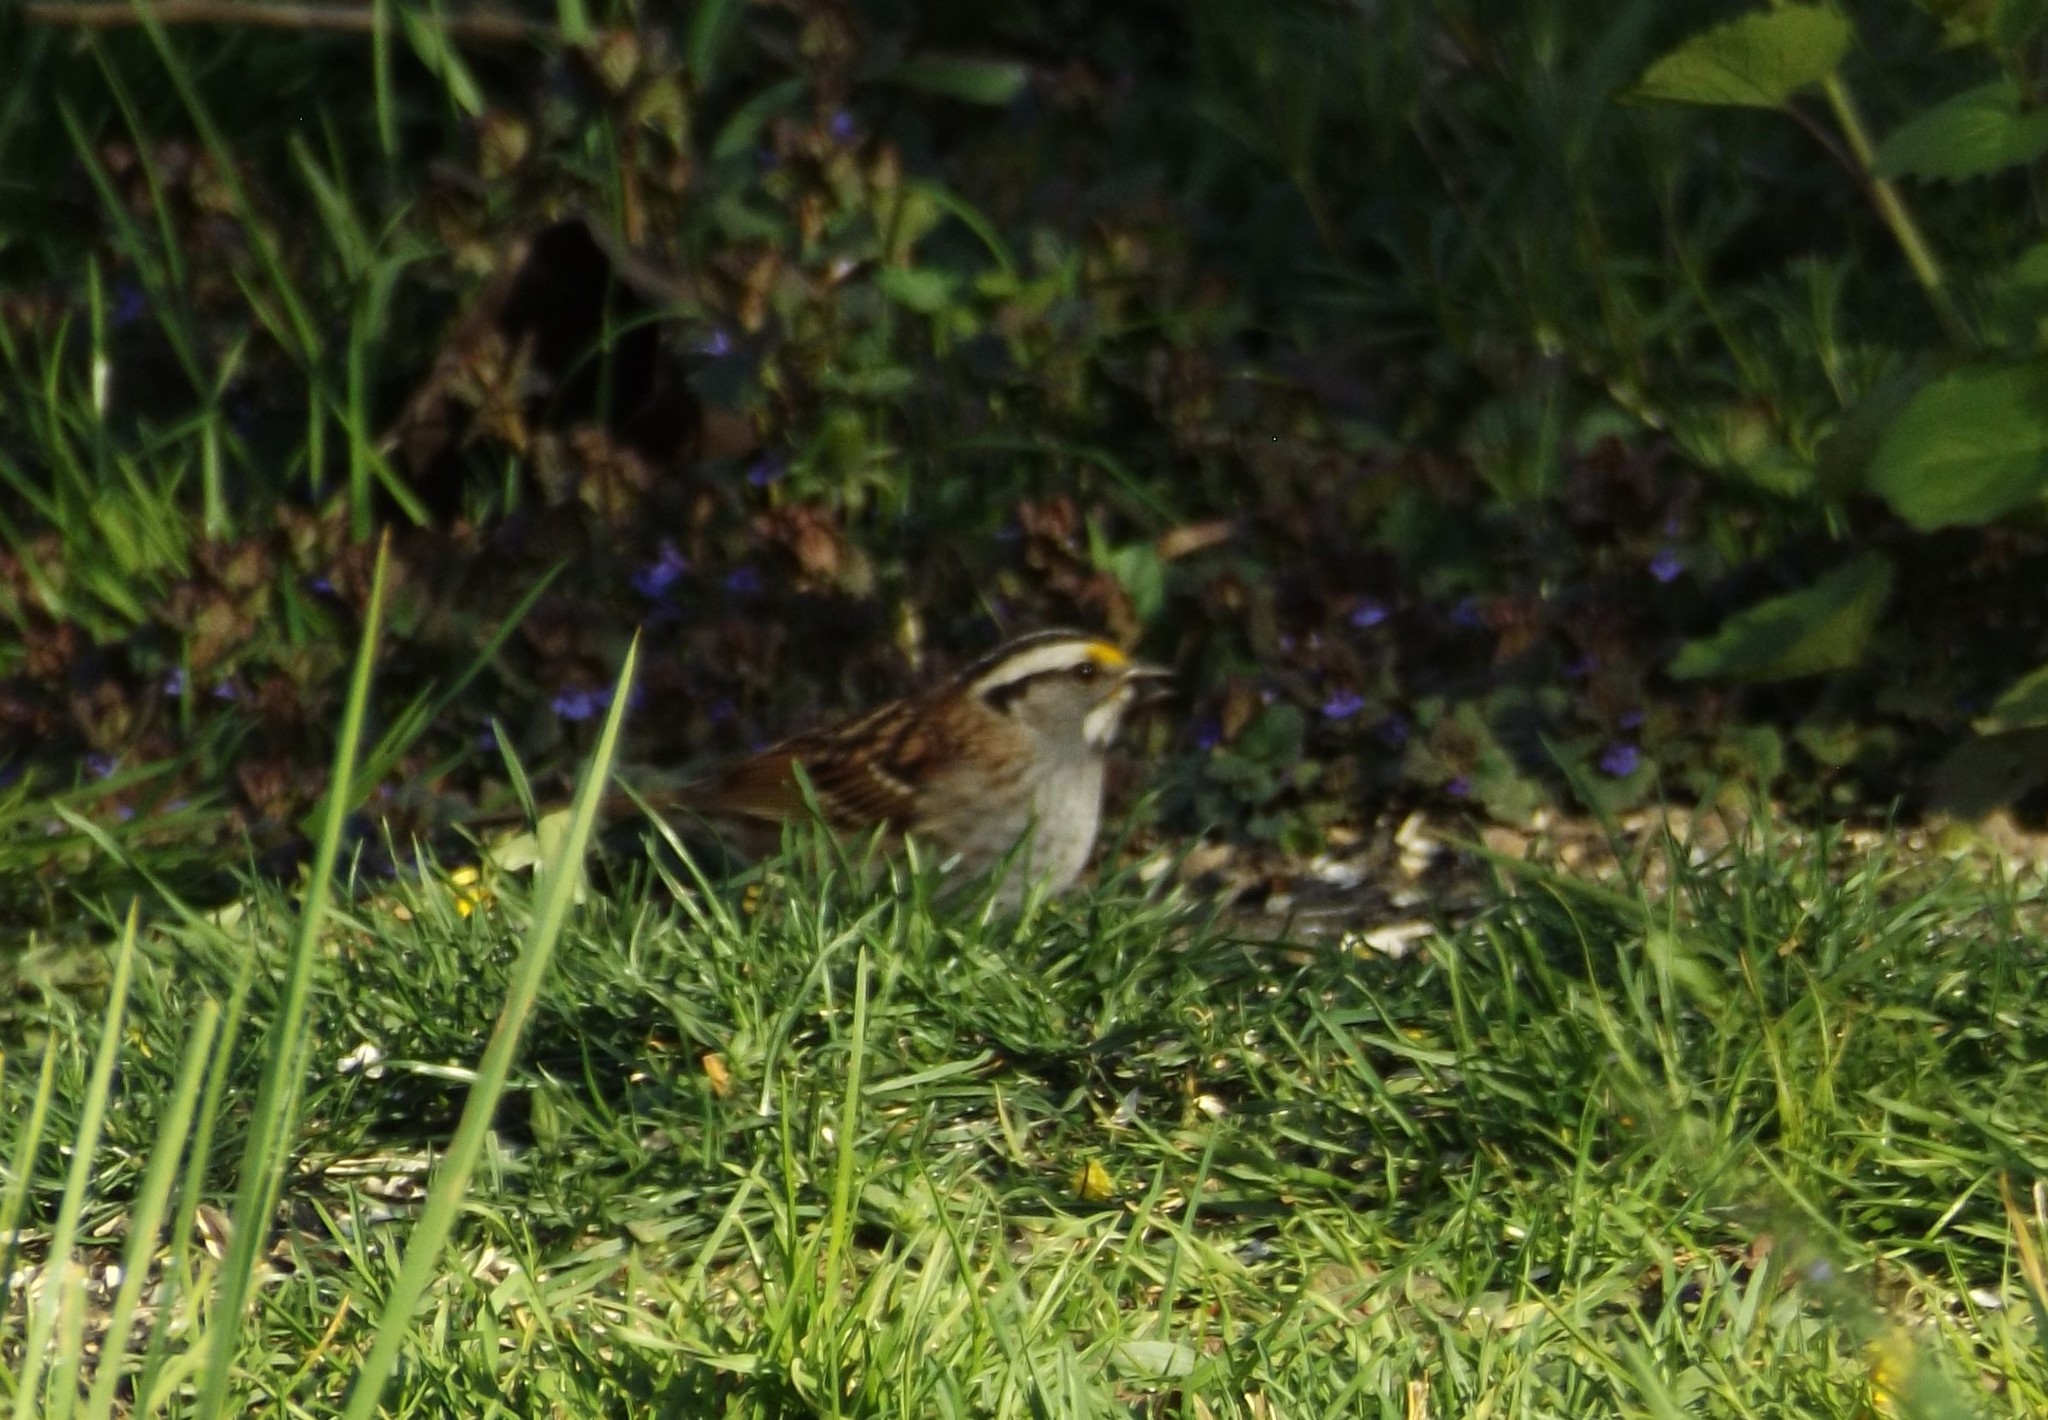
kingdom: Animalia
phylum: Chordata
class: Aves
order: Passeriformes
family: Passerellidae
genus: Zonotrichia
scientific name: Zonotrichia albicollis
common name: White-throated sparrow
